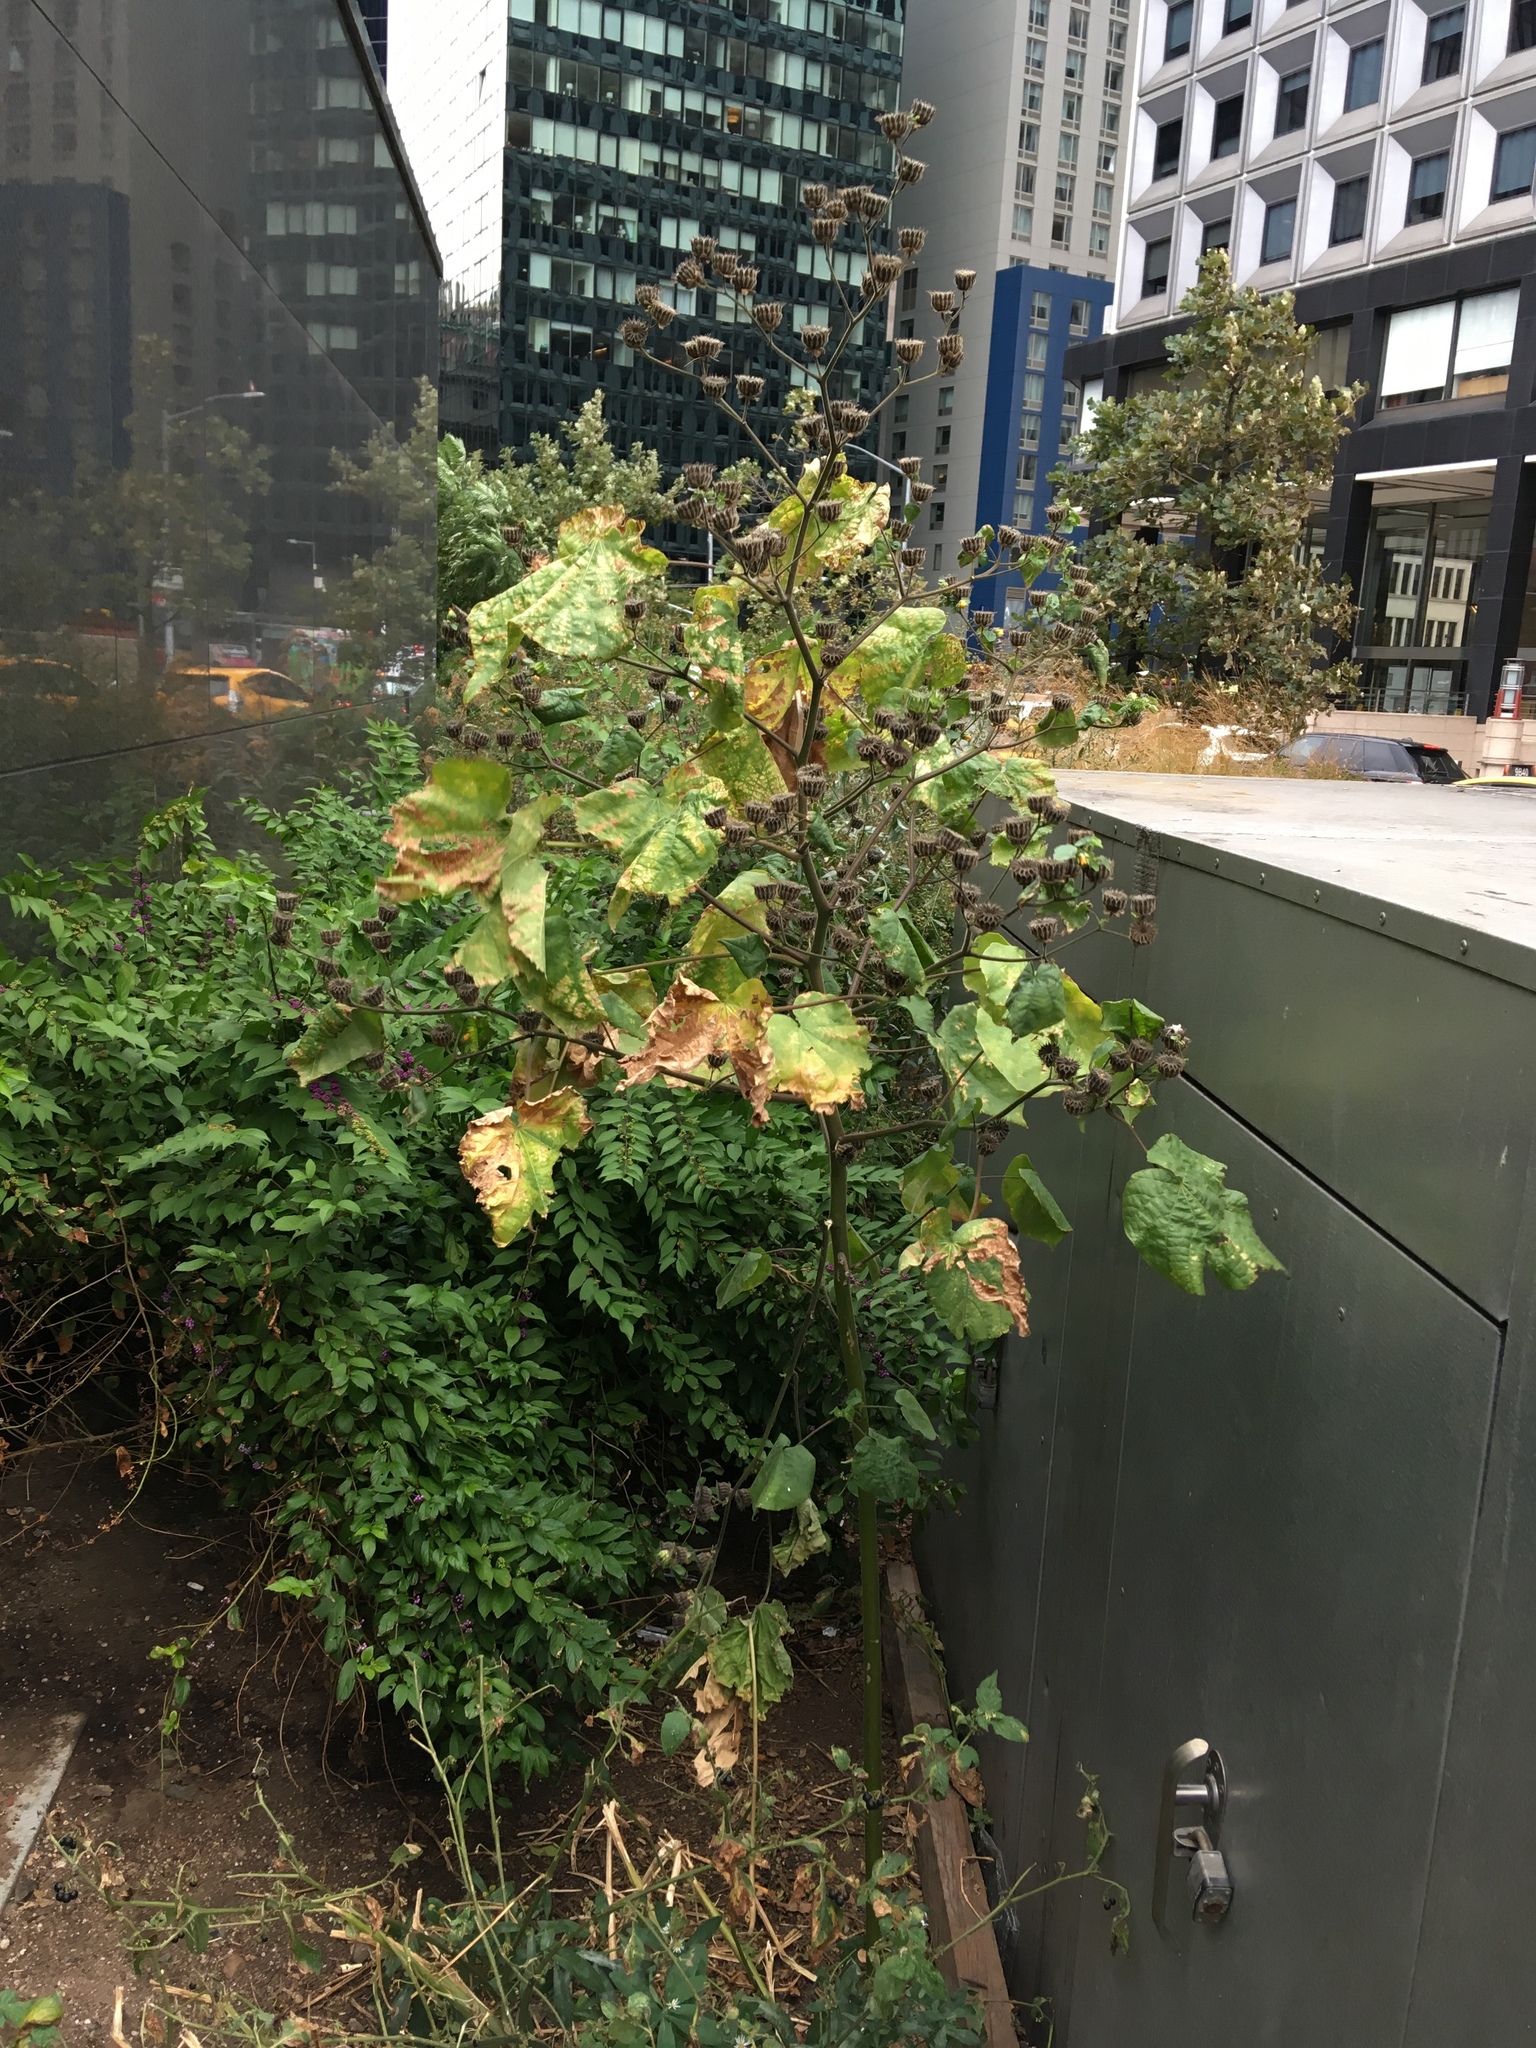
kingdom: Plantae
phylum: Tracheophyta
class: Magnoliopsida
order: Malvales
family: Malvaceae
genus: Abutilon
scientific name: Abutilon theophrasti
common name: Velvetleaf
